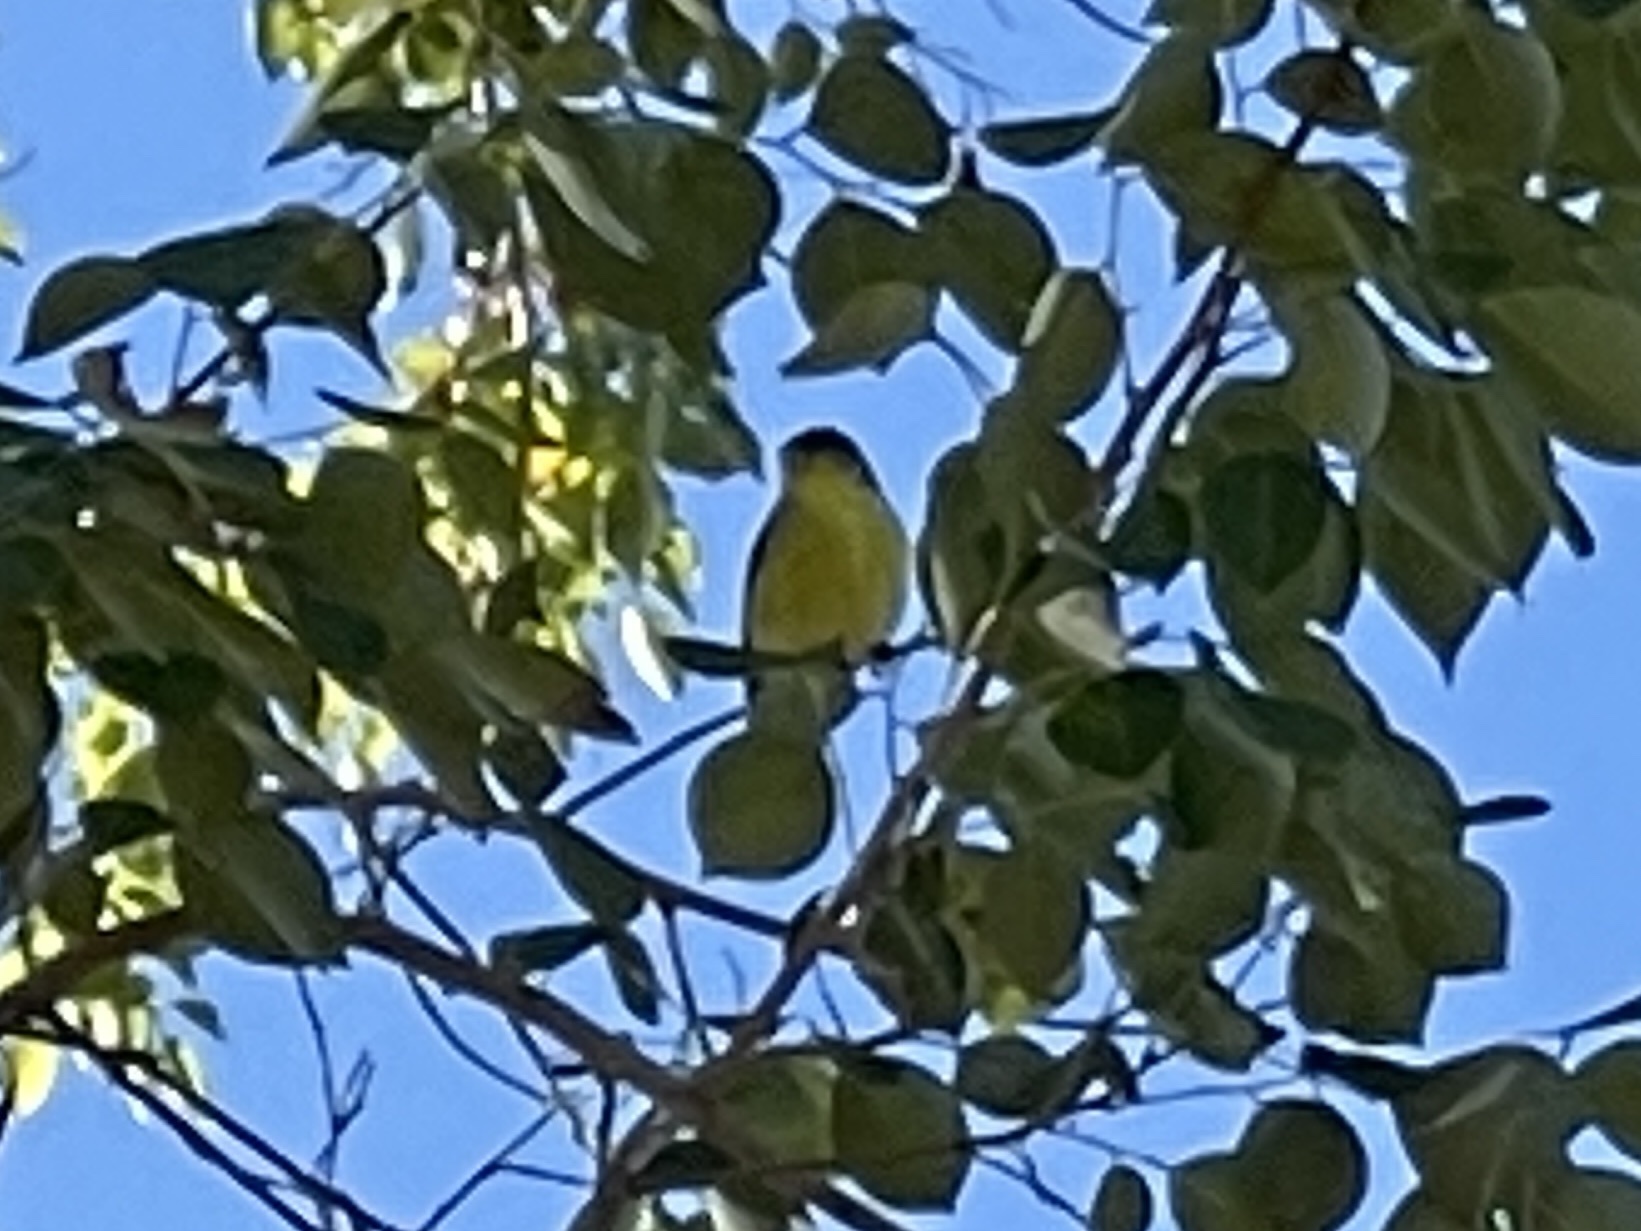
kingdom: Animalia
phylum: Chordata
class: Aves
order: Passeriformes
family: Fringillidae
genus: Spinus
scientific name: Spinus psaltria
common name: Lesser goldfinch
